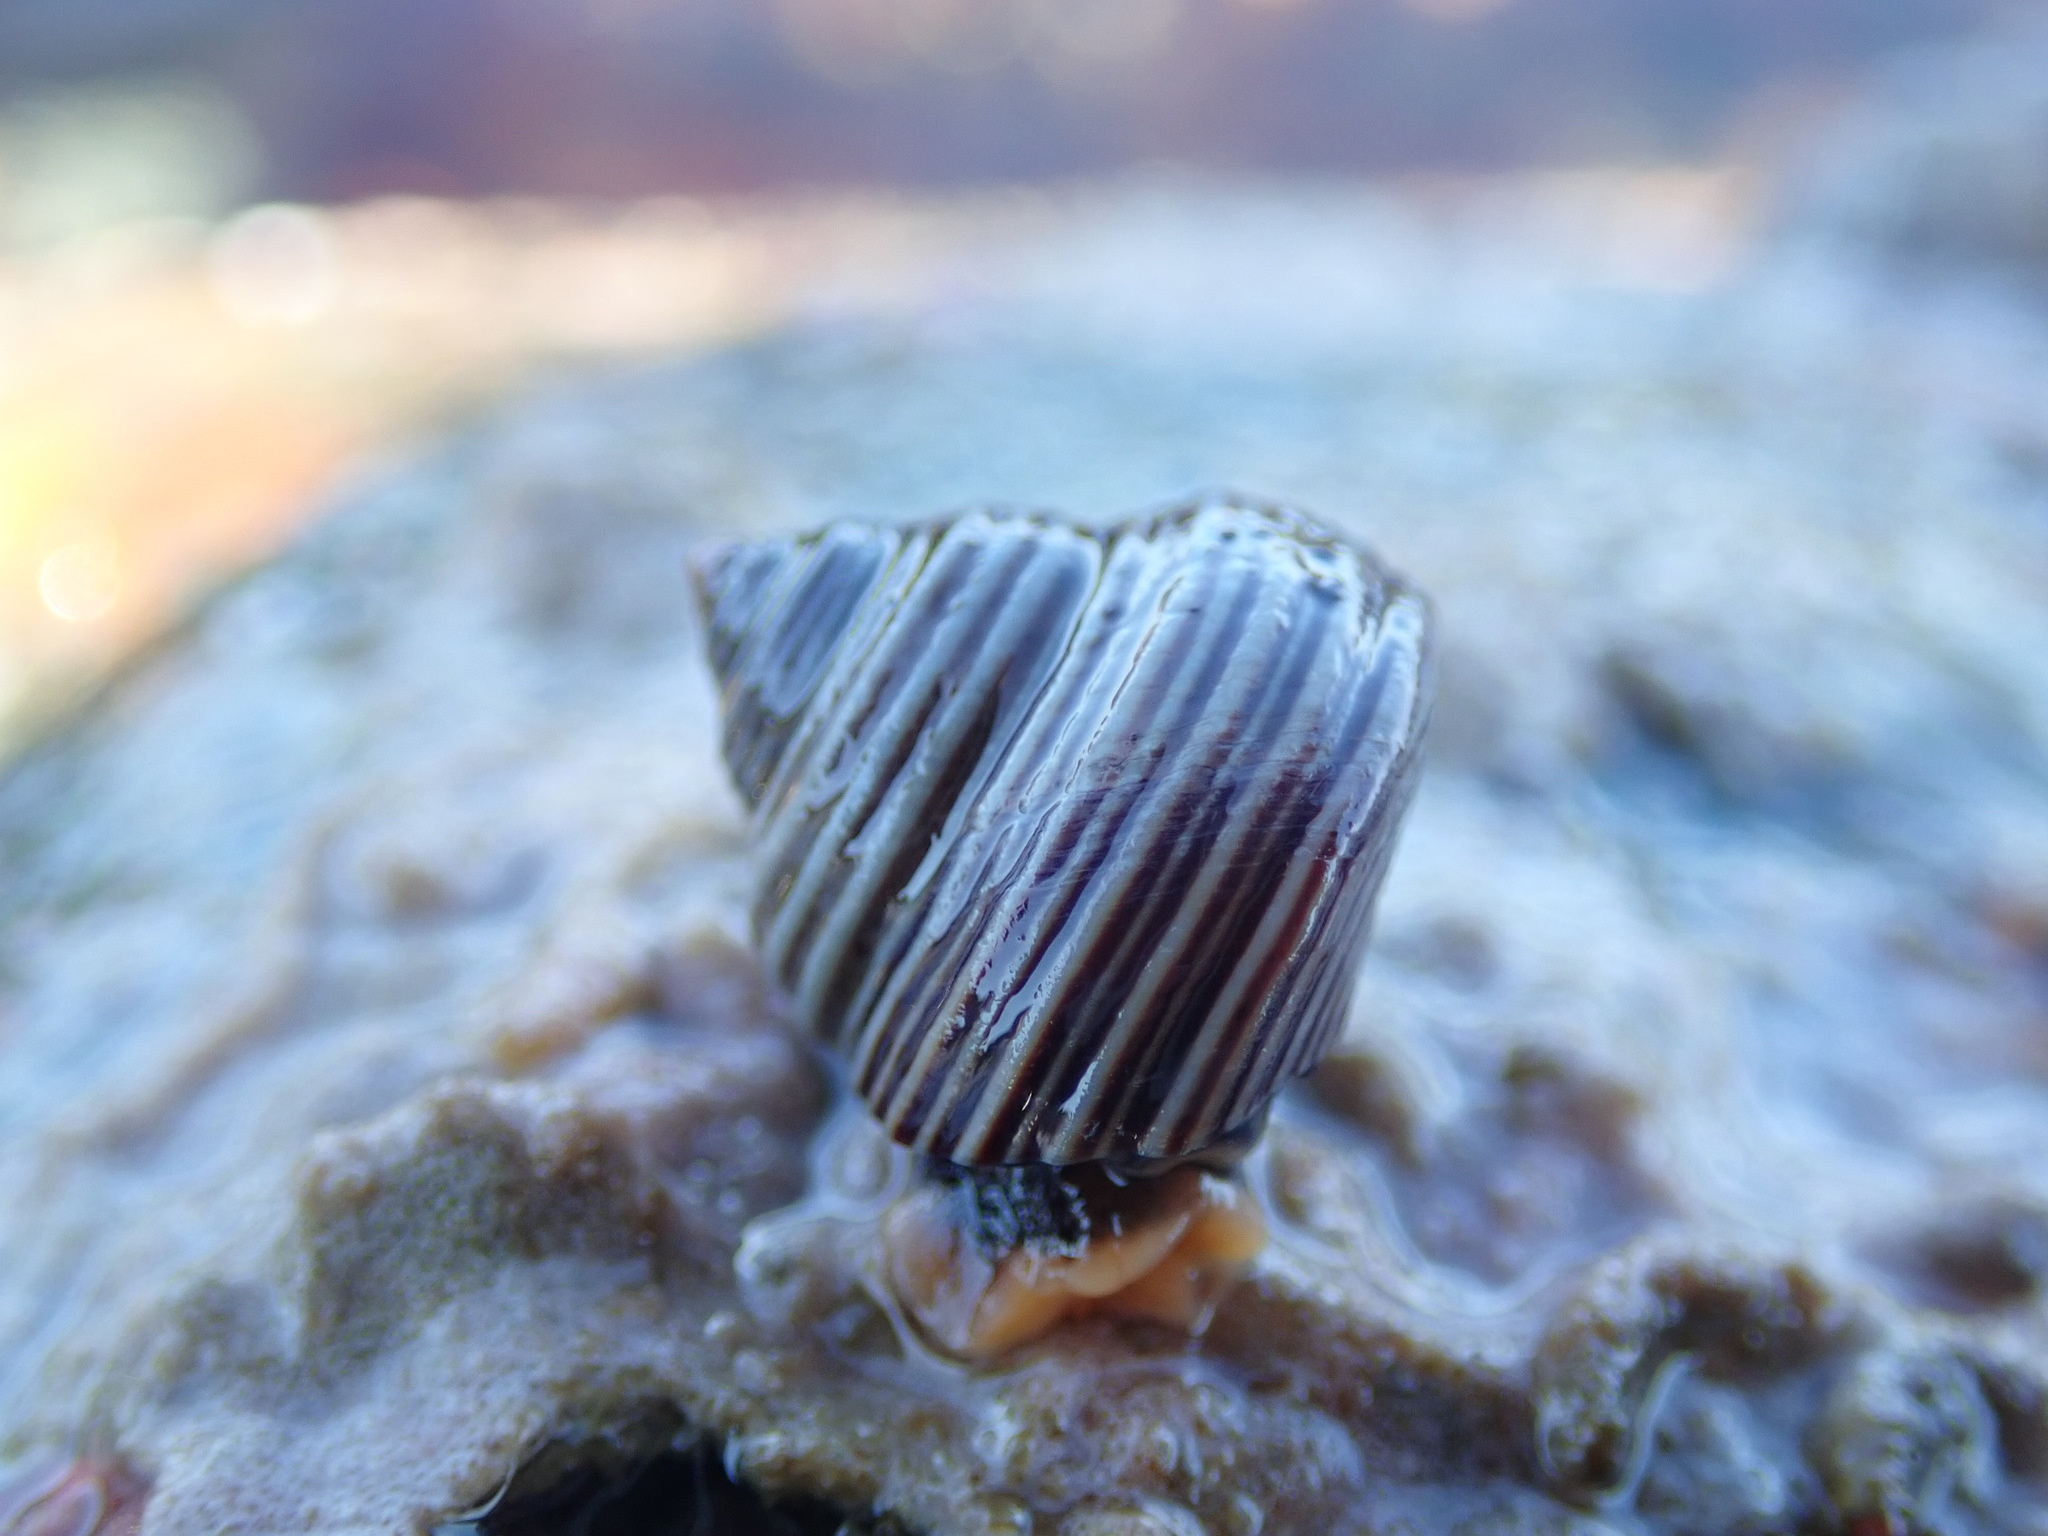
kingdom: Animalia
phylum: Mollusca
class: Gastropoda
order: Trochida
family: Calliostomatidae
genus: Calliostoma
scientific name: Calliostoma canaliculatum
